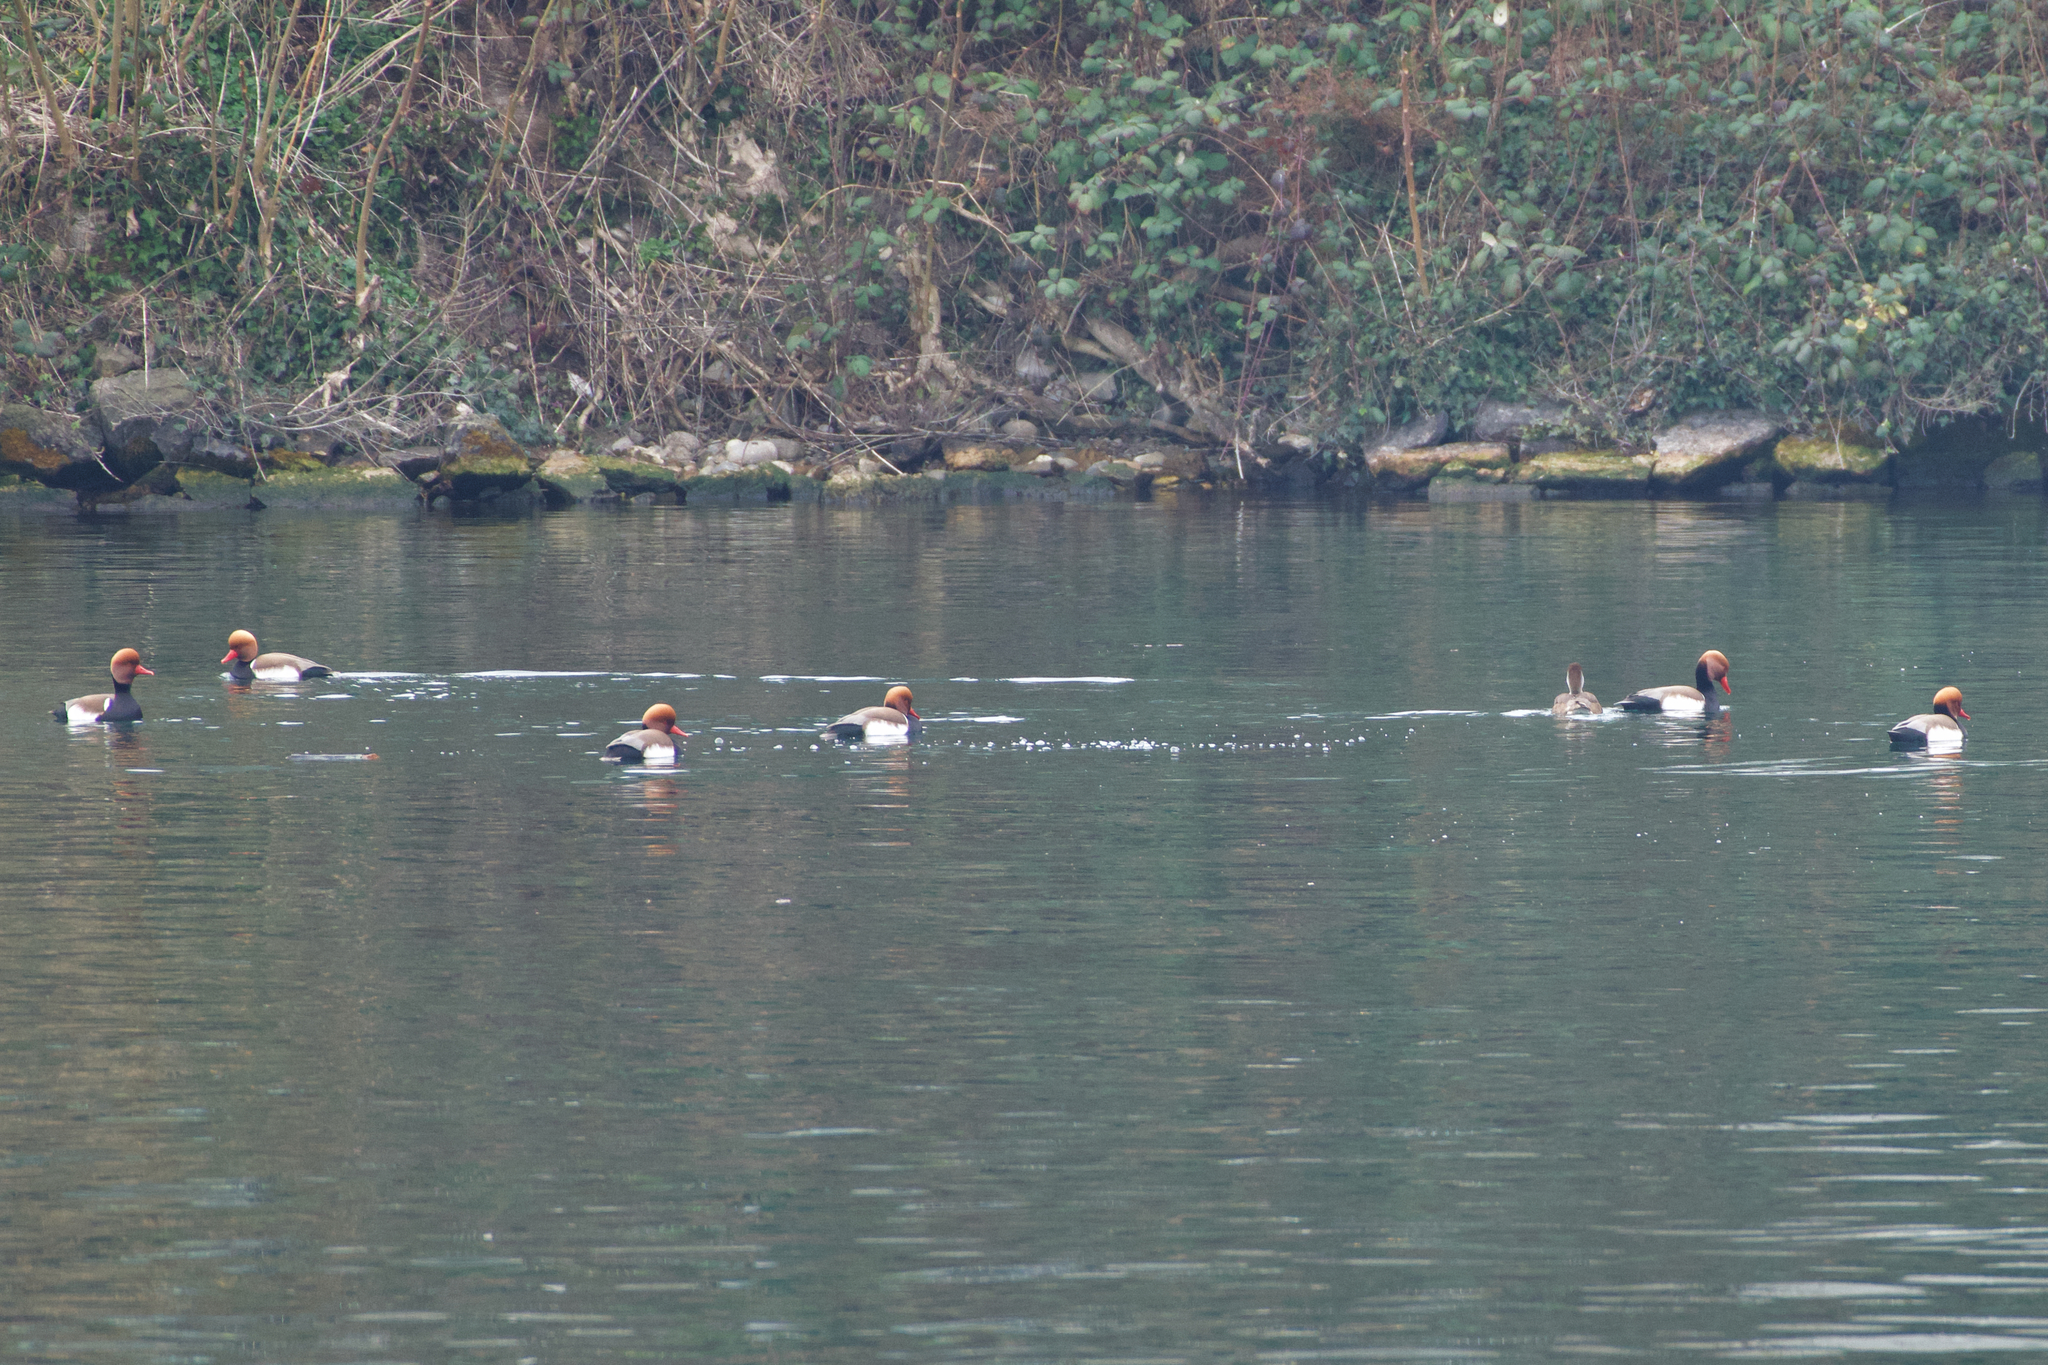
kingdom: Animalia
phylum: Chordata
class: Aves
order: Anseriformes
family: Anatidae
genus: Netta
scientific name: Netta rufina
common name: Red-crested pochard
